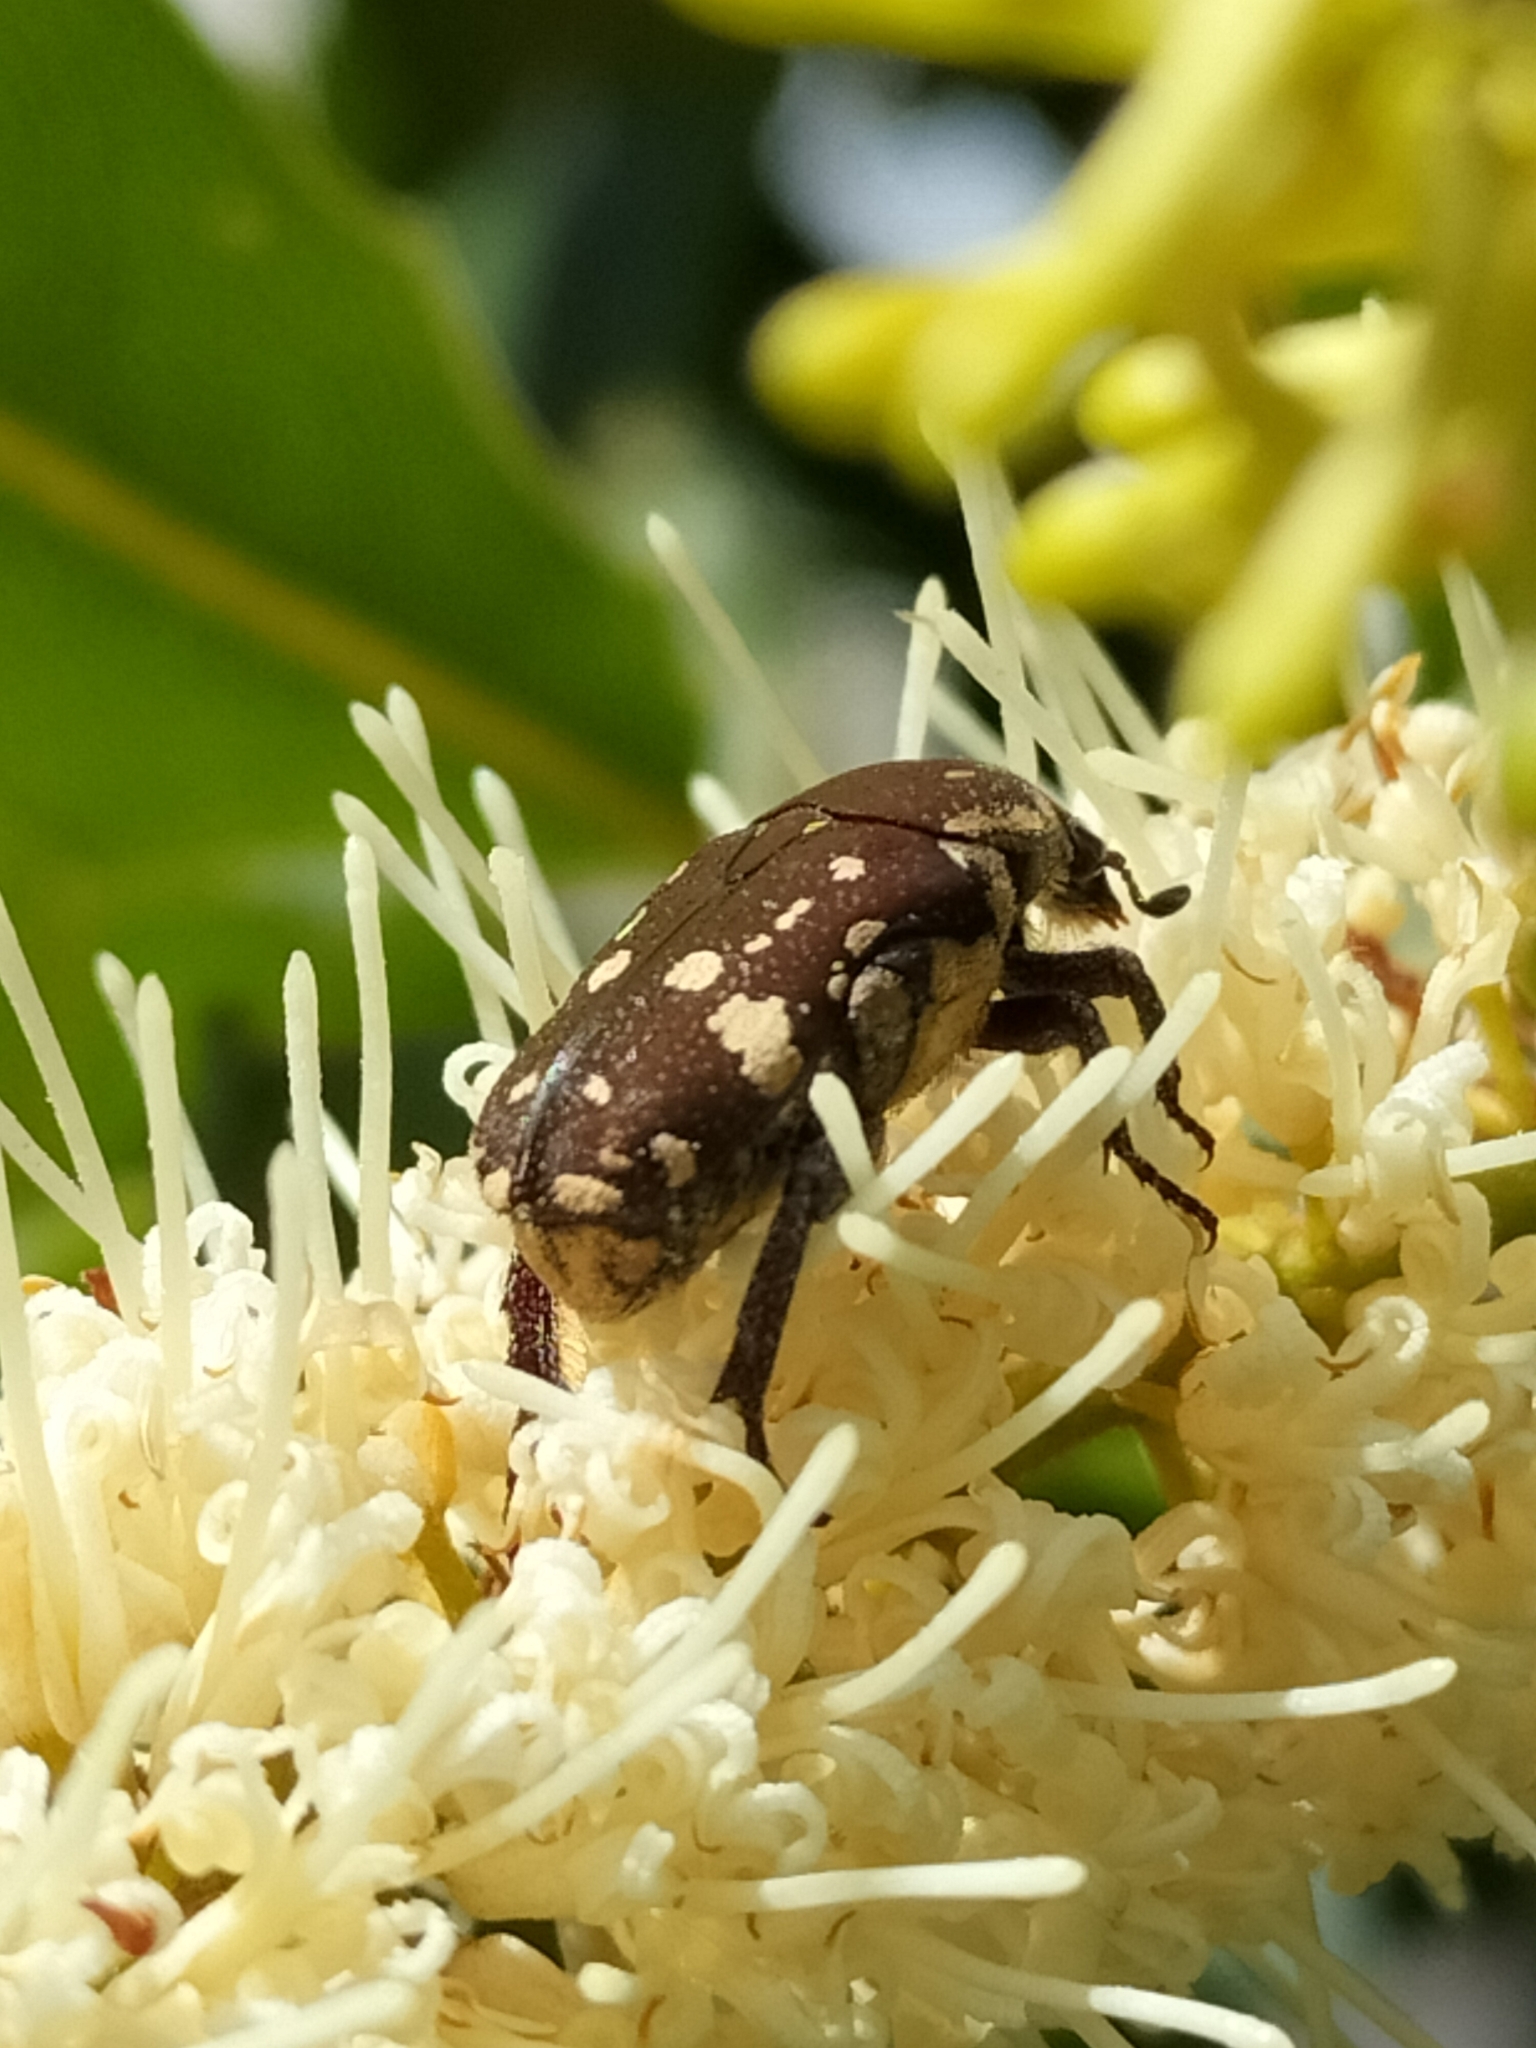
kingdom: Animalia
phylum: Arthropoda
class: Insecta
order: Coleoptera
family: Scarabaeidae
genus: Glycyphana
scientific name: Glycyphana stolata
